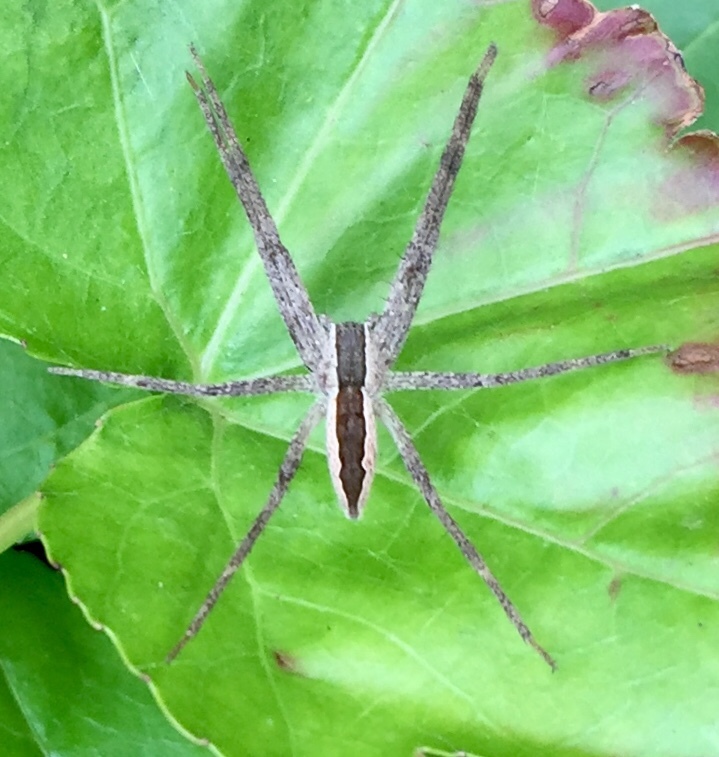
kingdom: Animalia
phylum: Arthropoda
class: Arachnida
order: Araneae
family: Pisauridae
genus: Pisaurina
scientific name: Pisaurina mira
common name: American nursery web spider
